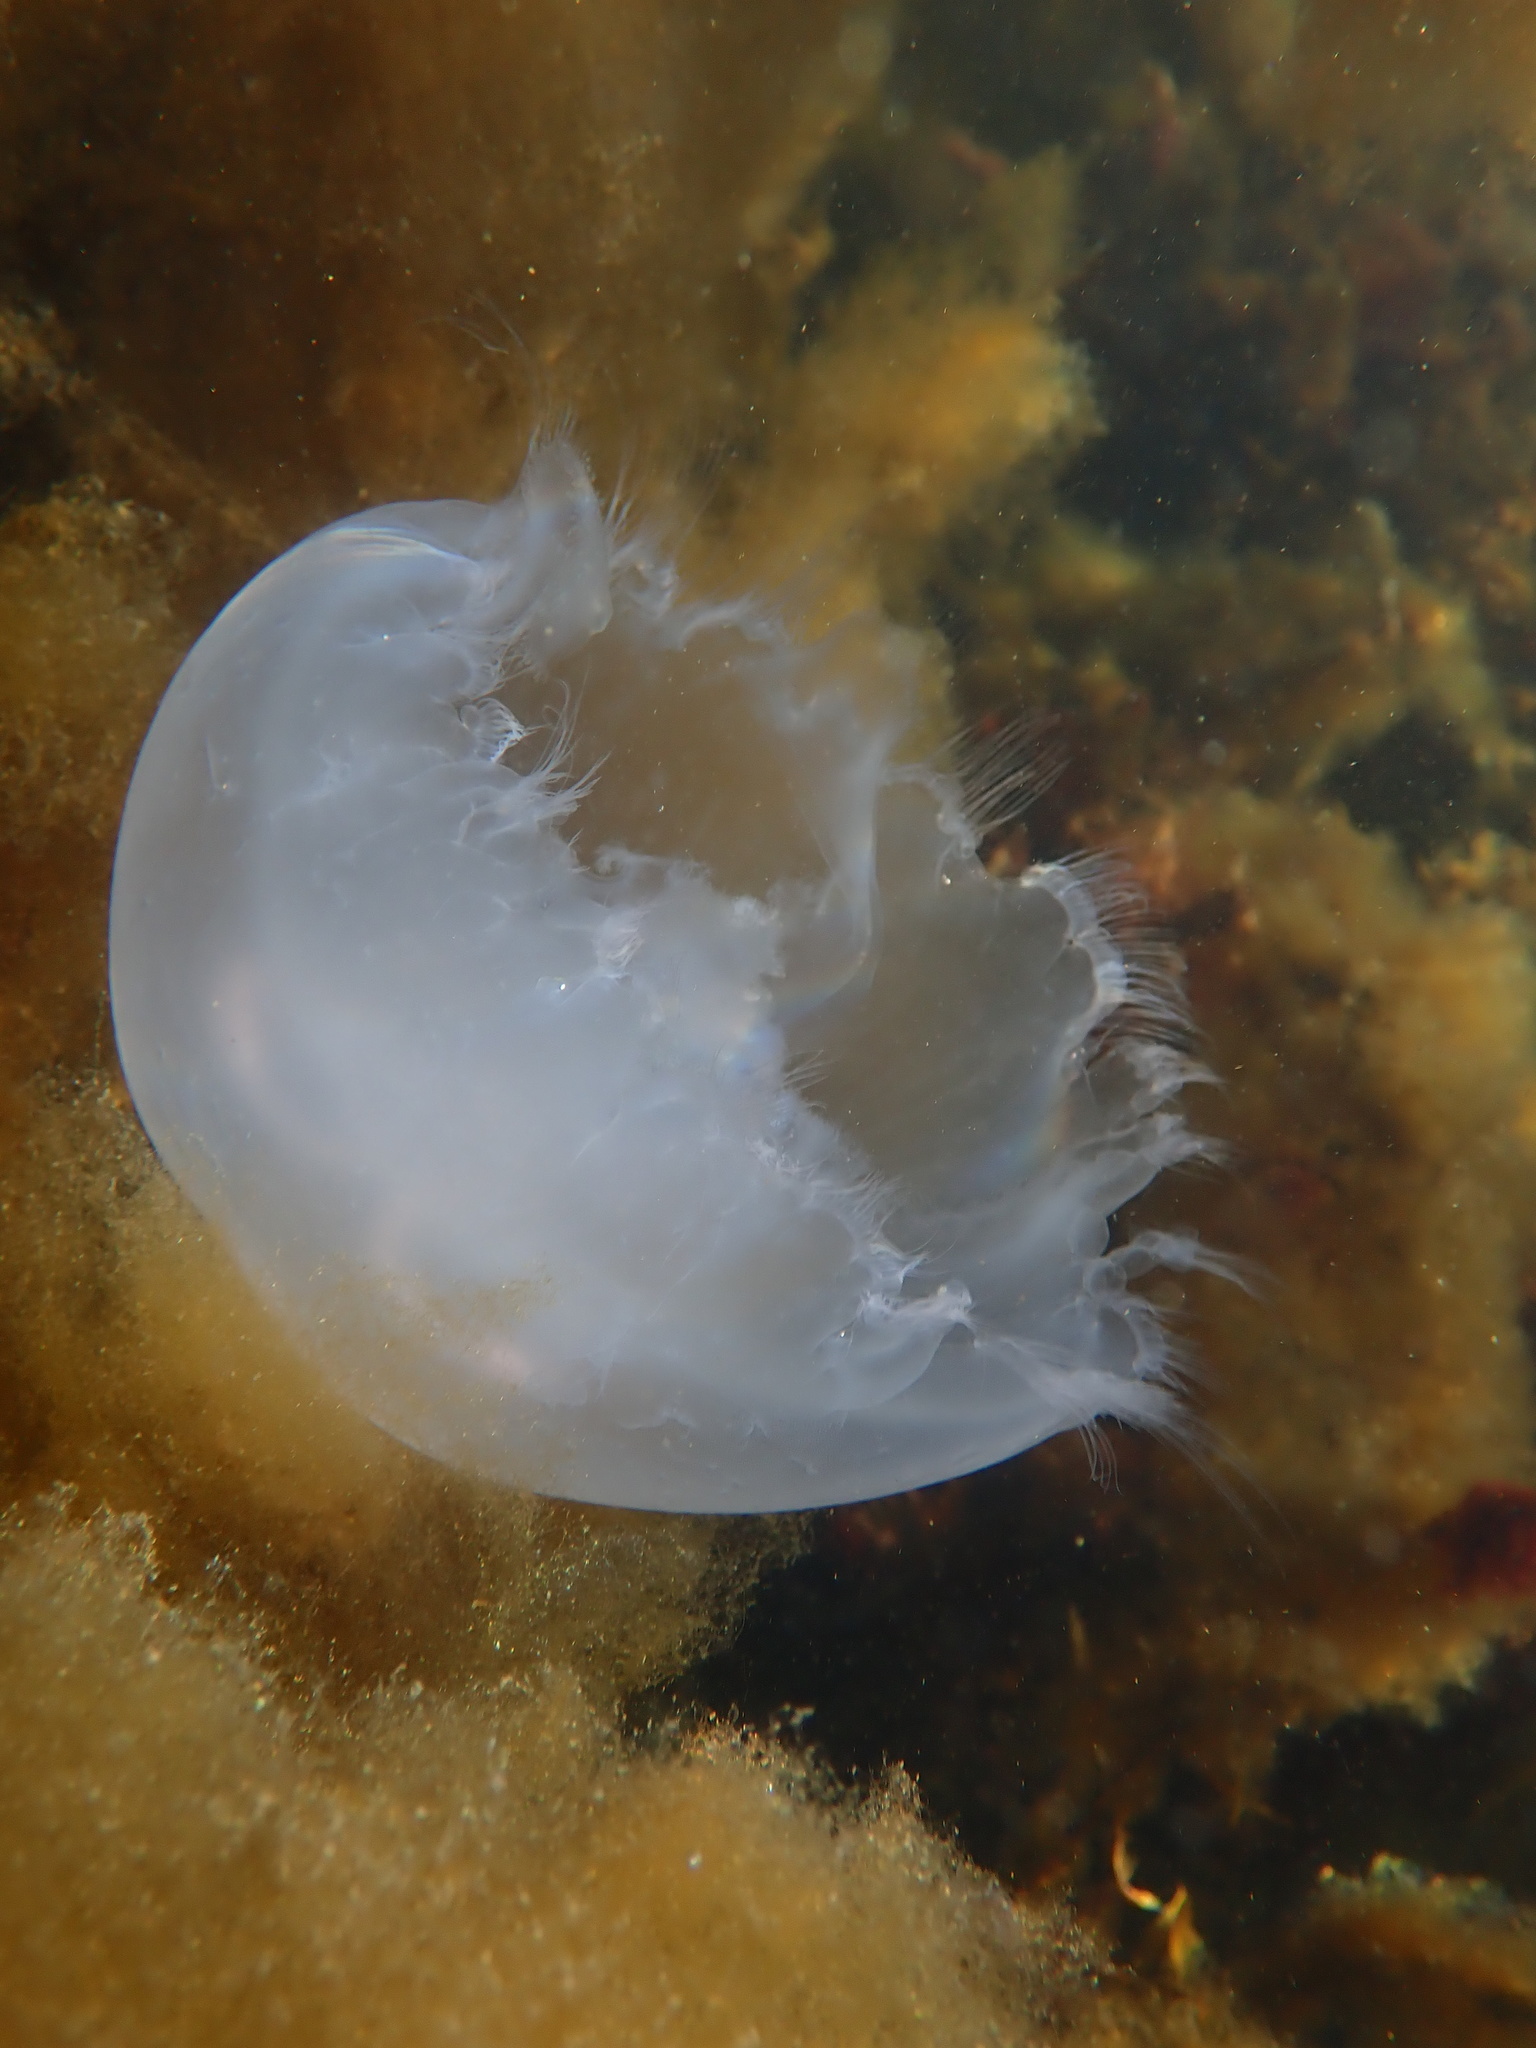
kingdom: Animalia
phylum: Cnidaria
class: Scyphozoa
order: Semaeostomeae
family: Ulmaridae
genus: Aurelia
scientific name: Aurelia aurita
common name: Moon jellyfish
